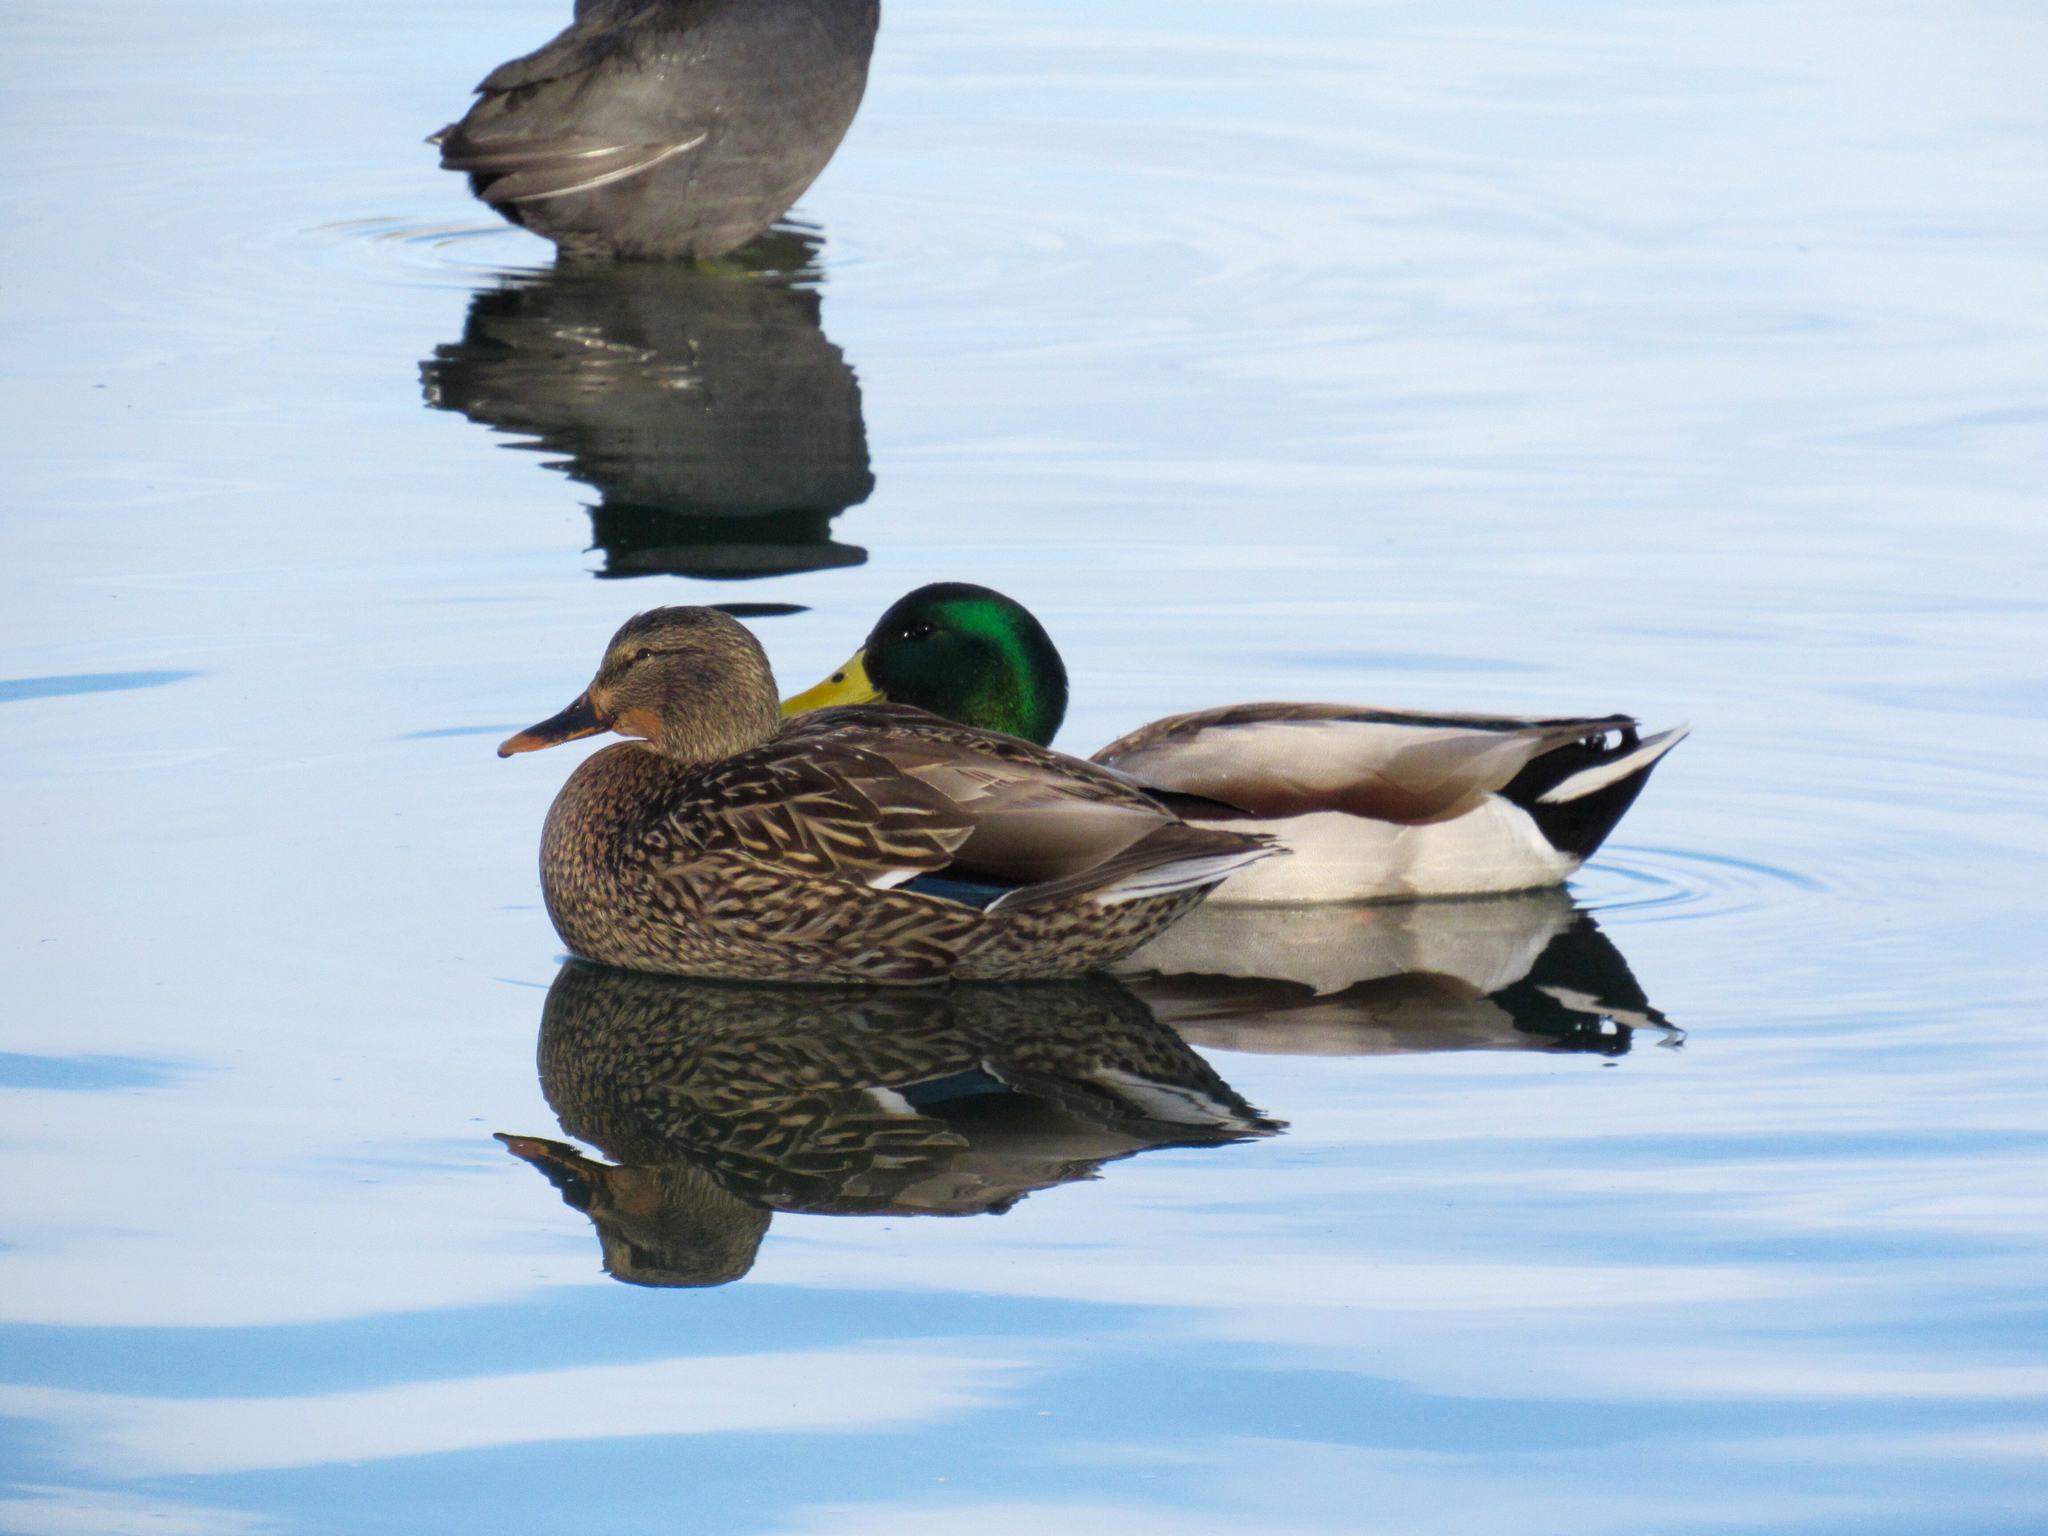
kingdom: Animalia
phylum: Chordata
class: Aves
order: Anseriformes
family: Anatidae
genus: Anas
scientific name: Anas platyrhynchos
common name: Mallard
